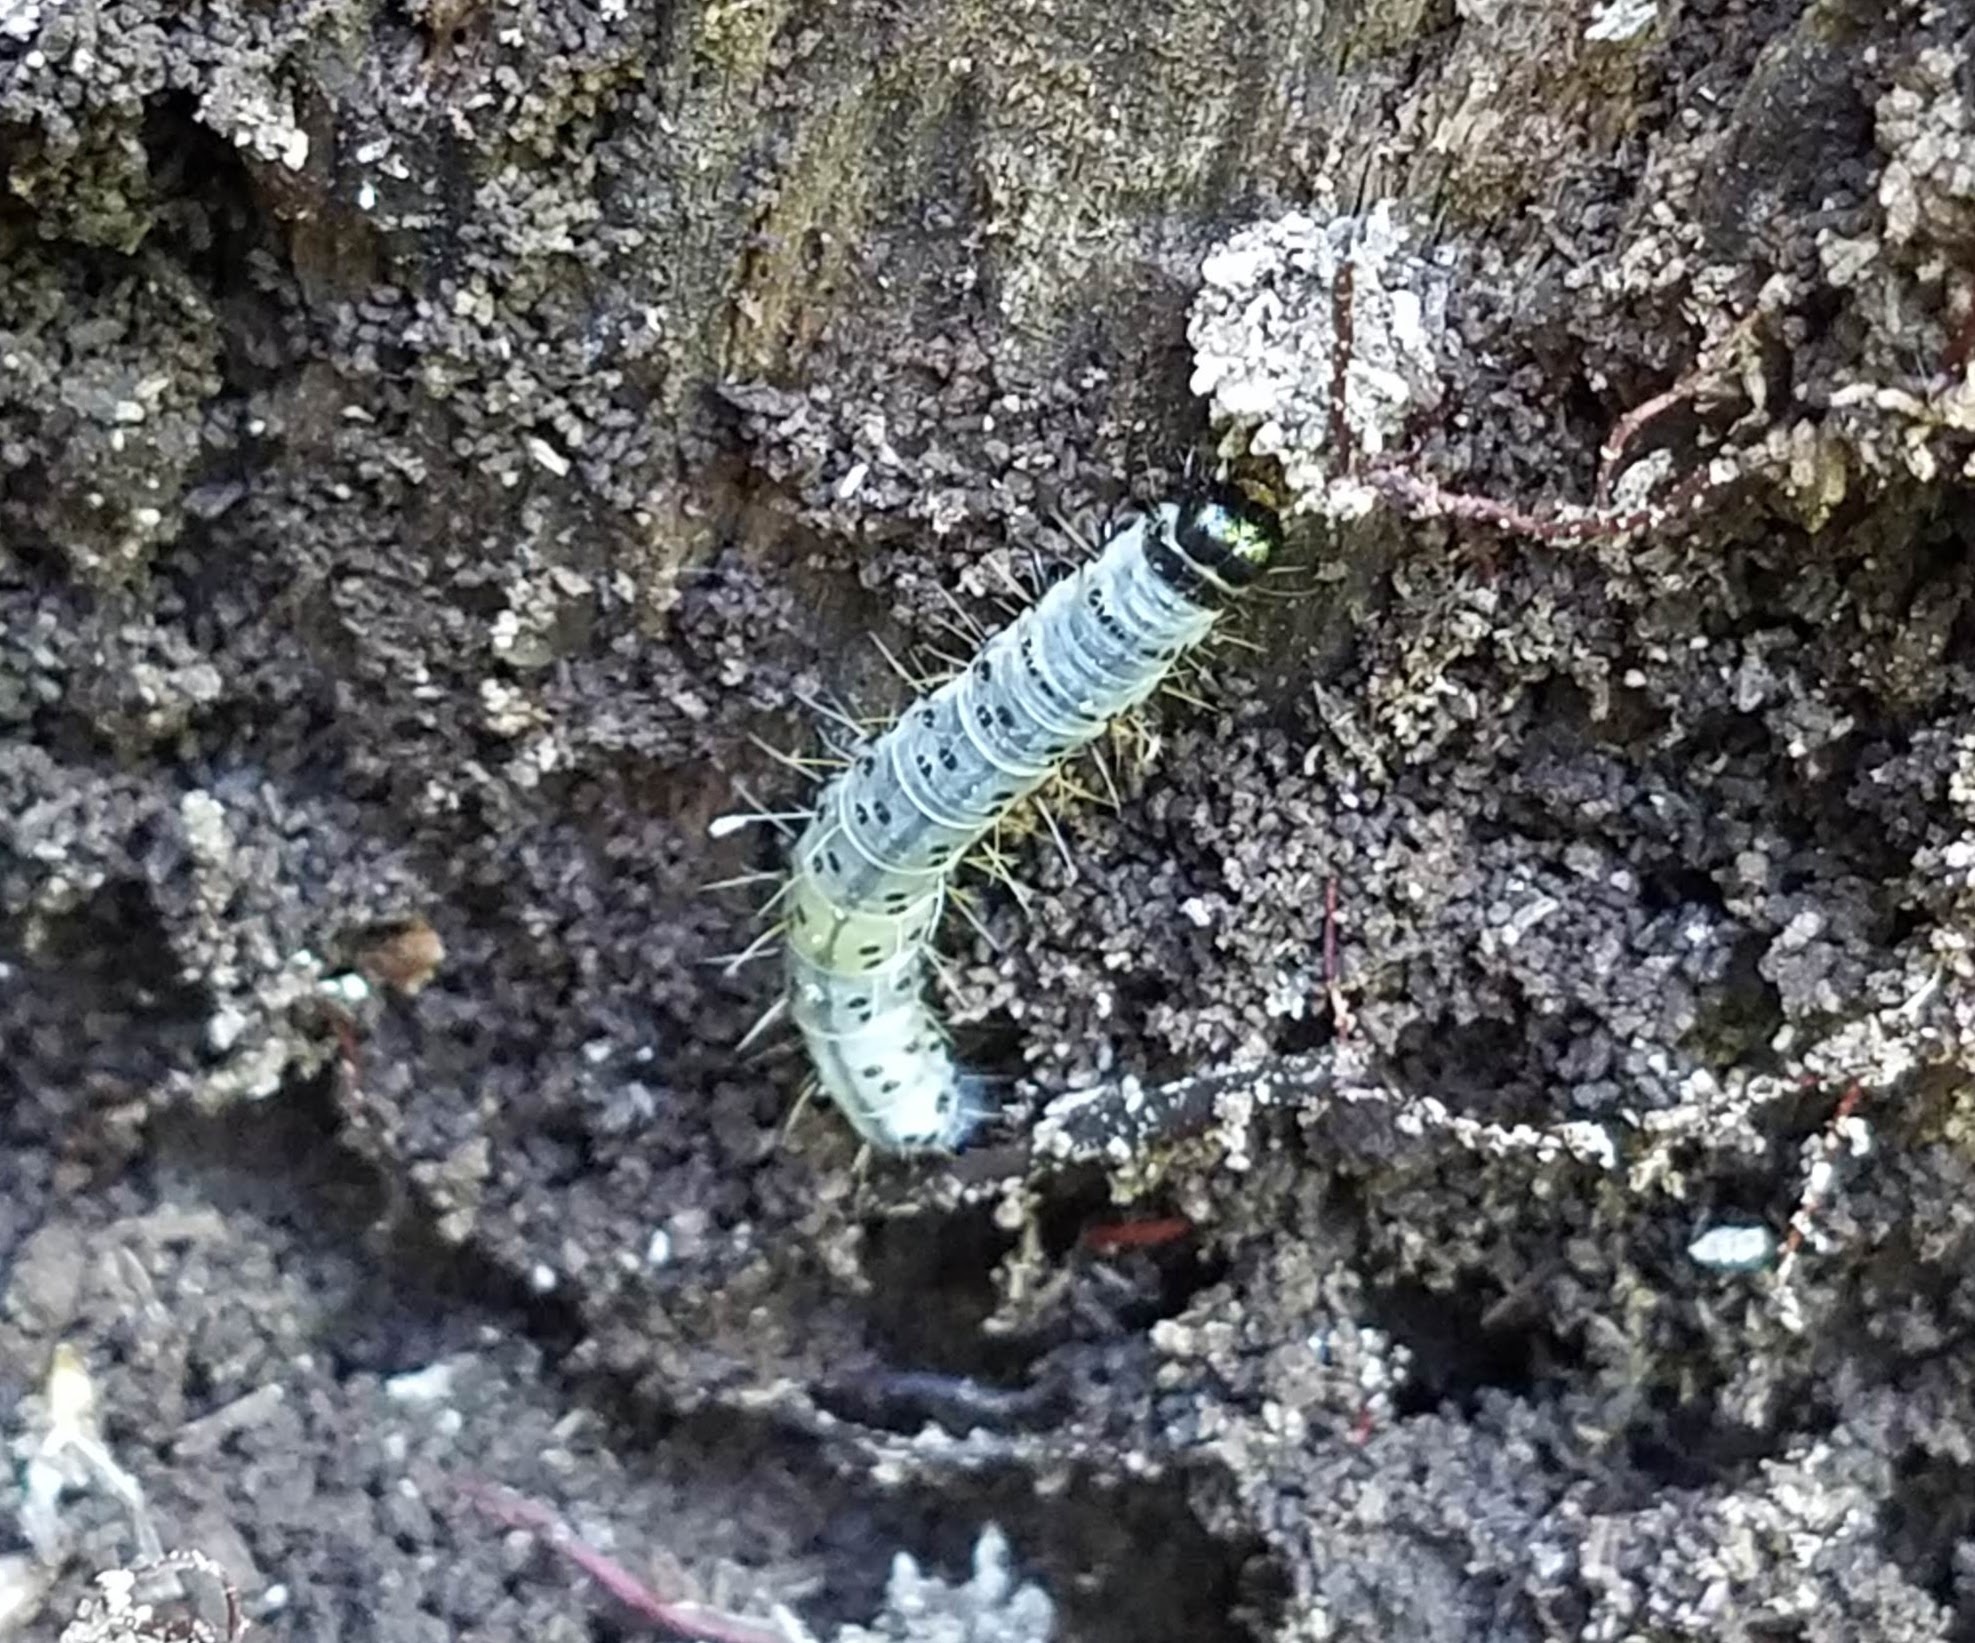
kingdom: Animalia
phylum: Arthropoda
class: Insecta
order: Lepidoptera
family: Erebidae
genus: Scolecocampa
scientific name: Scolecocampa liburna
